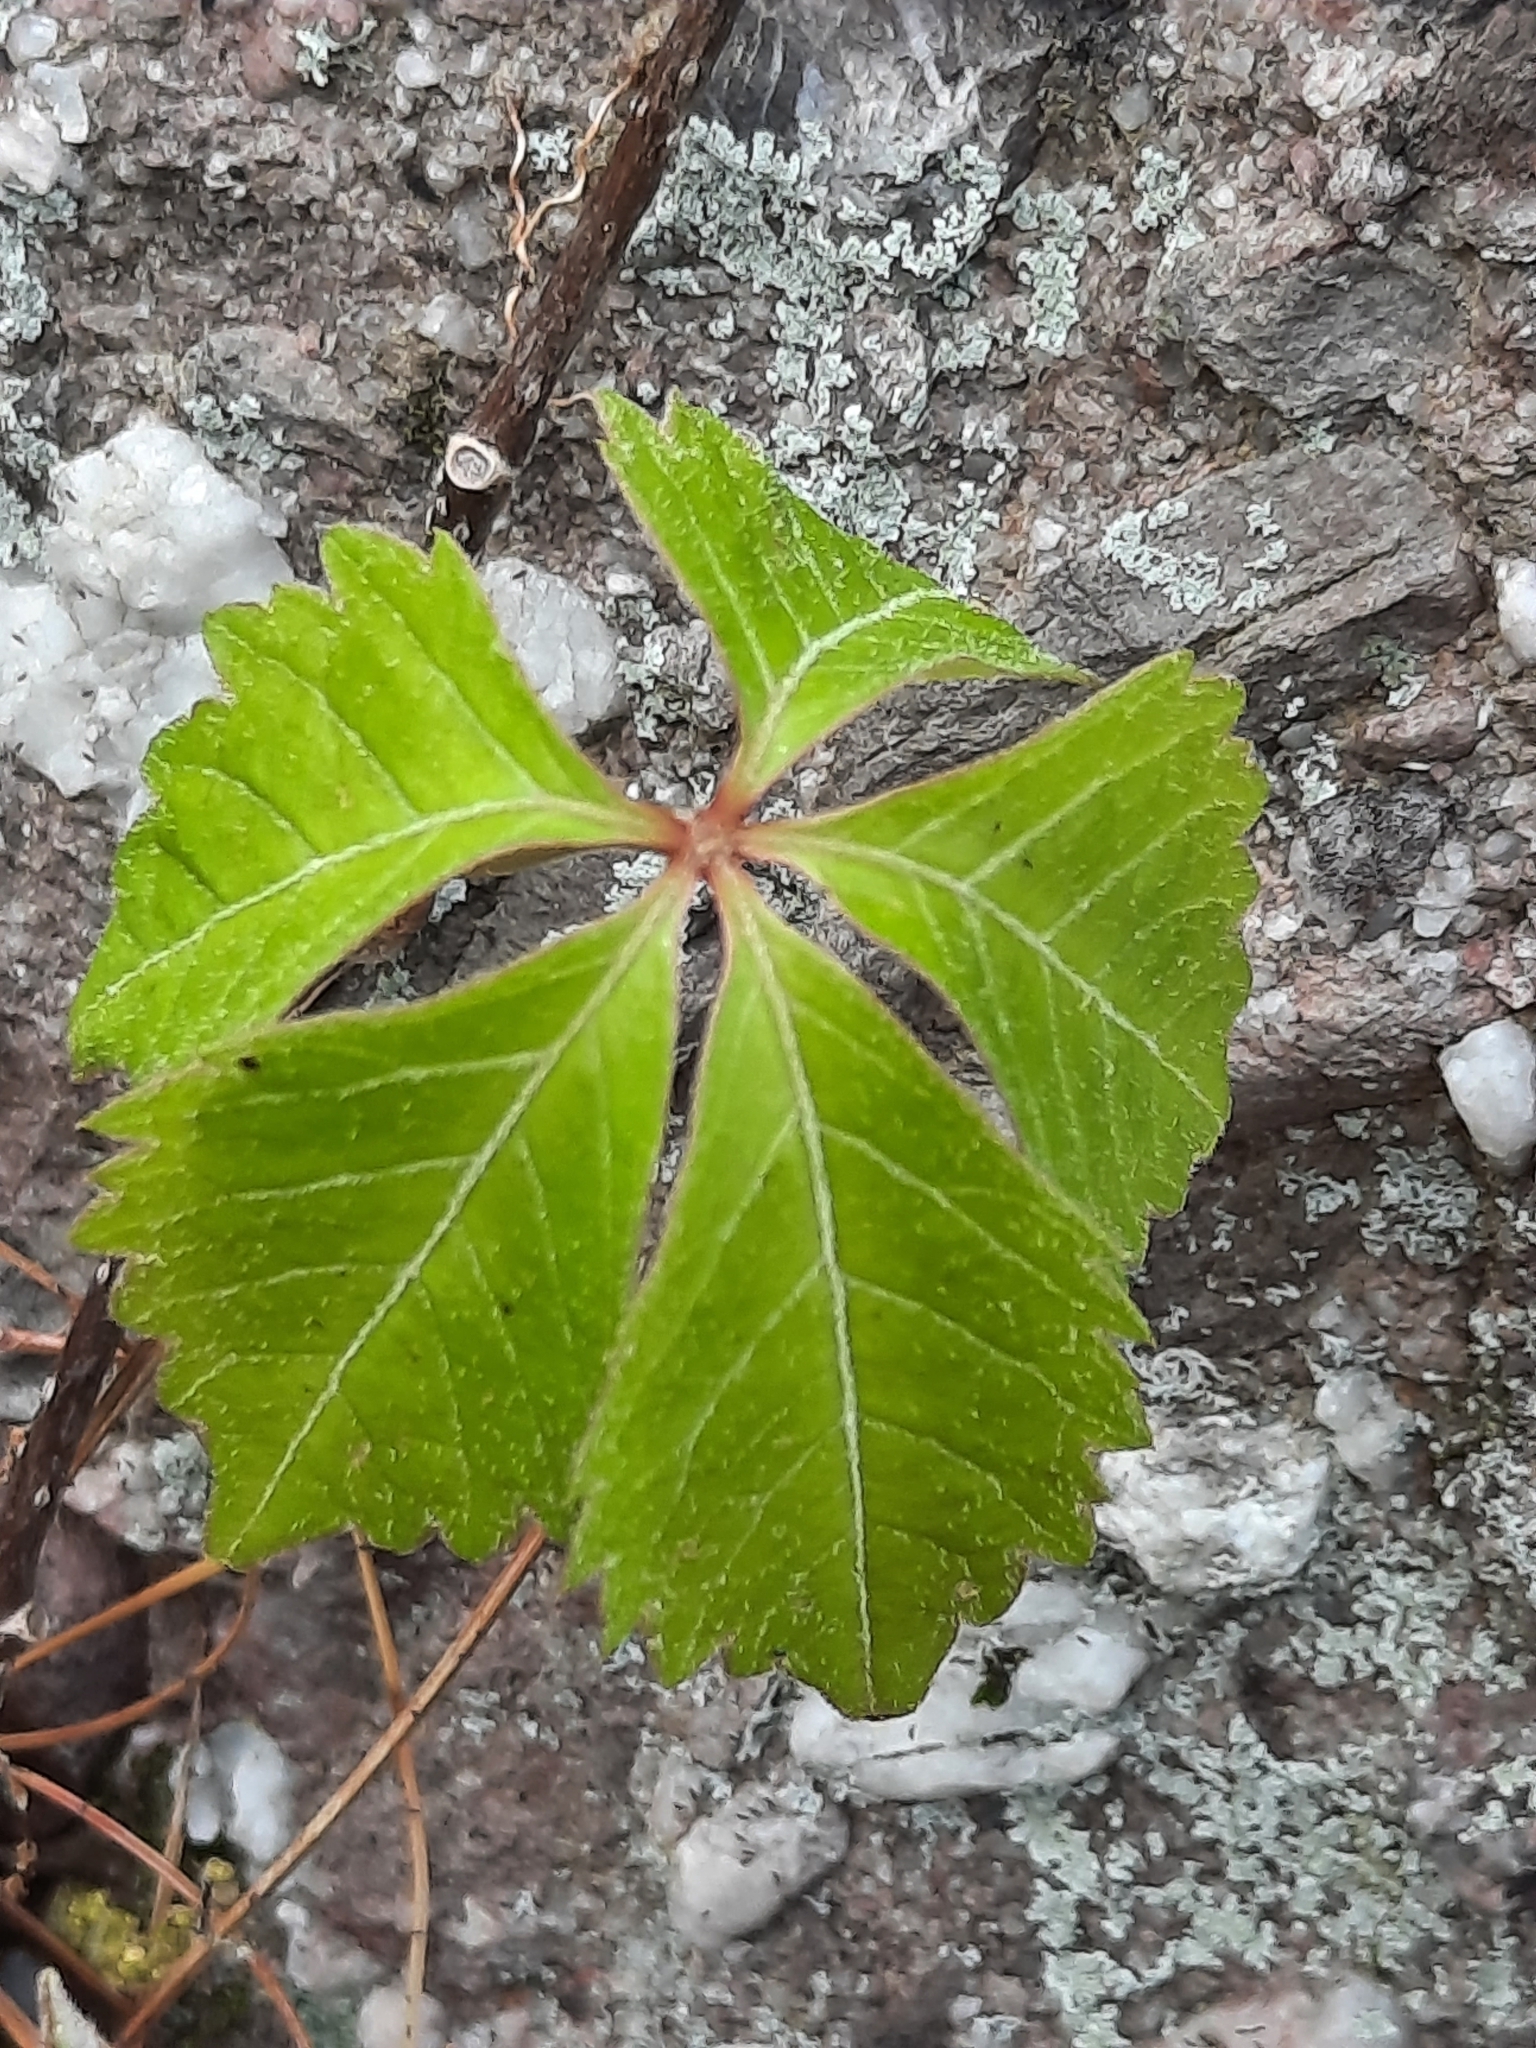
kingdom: Plantae
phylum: Tracheophyta
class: Magnoliopsida
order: Vitales
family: Vitaceae
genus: Parthenocissus
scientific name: Parthenocissus quinquefolia
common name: Virginia-creeper
